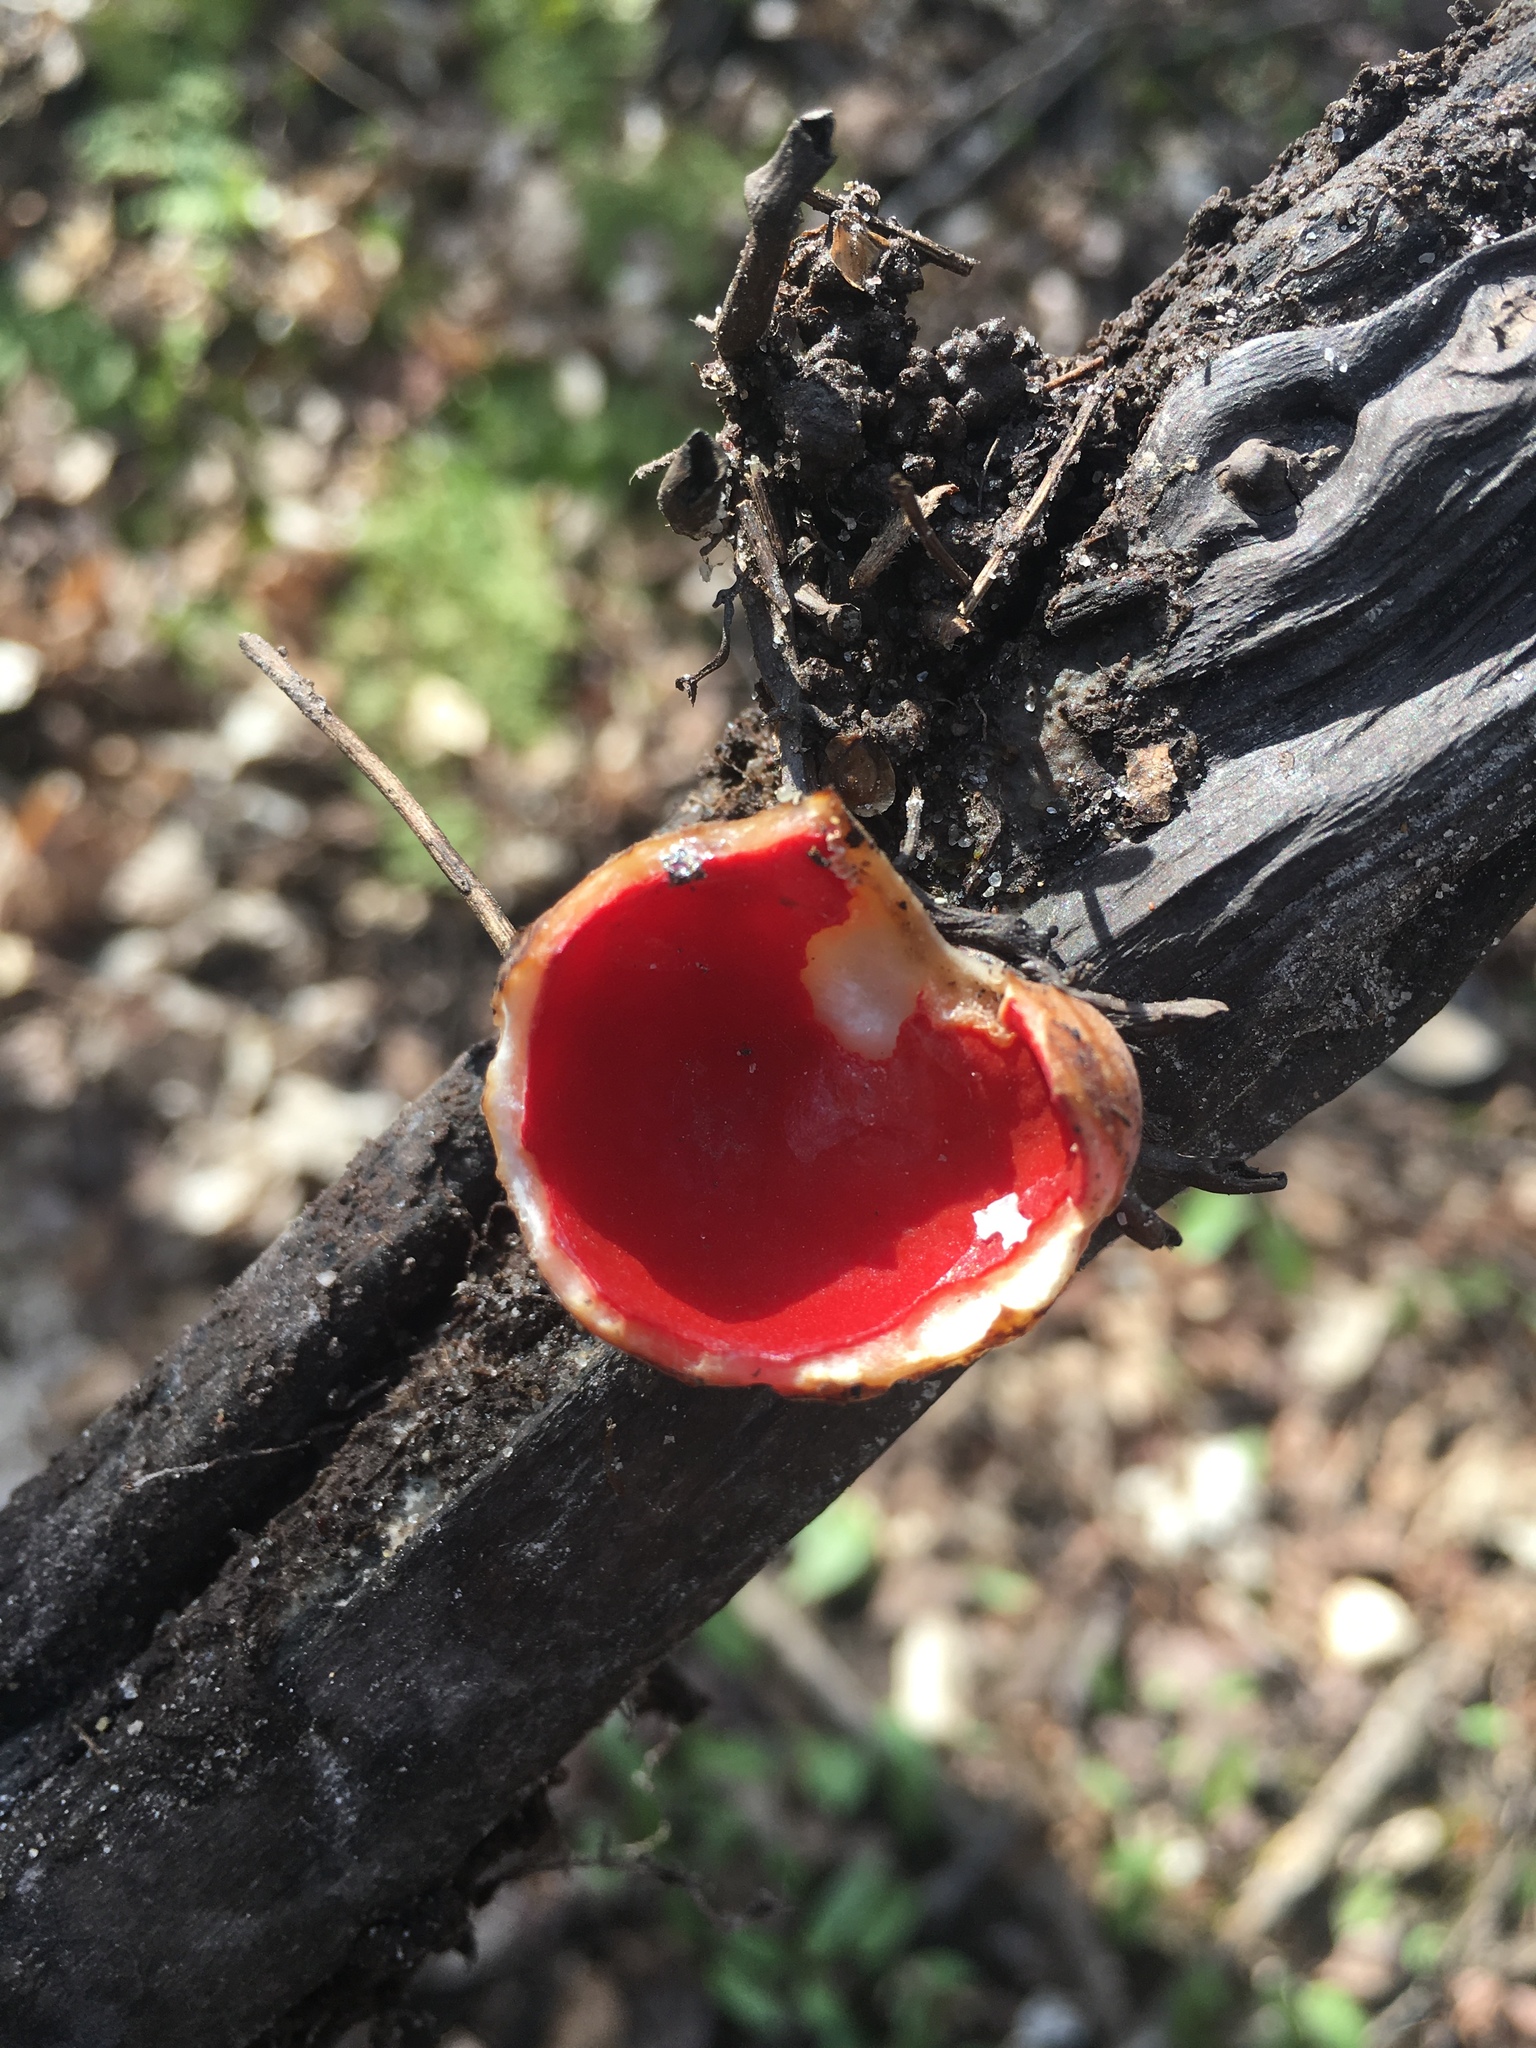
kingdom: Fungi
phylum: Ascomycota
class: Pezizomycetes
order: Pezizales
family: Sarcoscyphaceae
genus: Sarcoscypha
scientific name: Sarcoscypha
